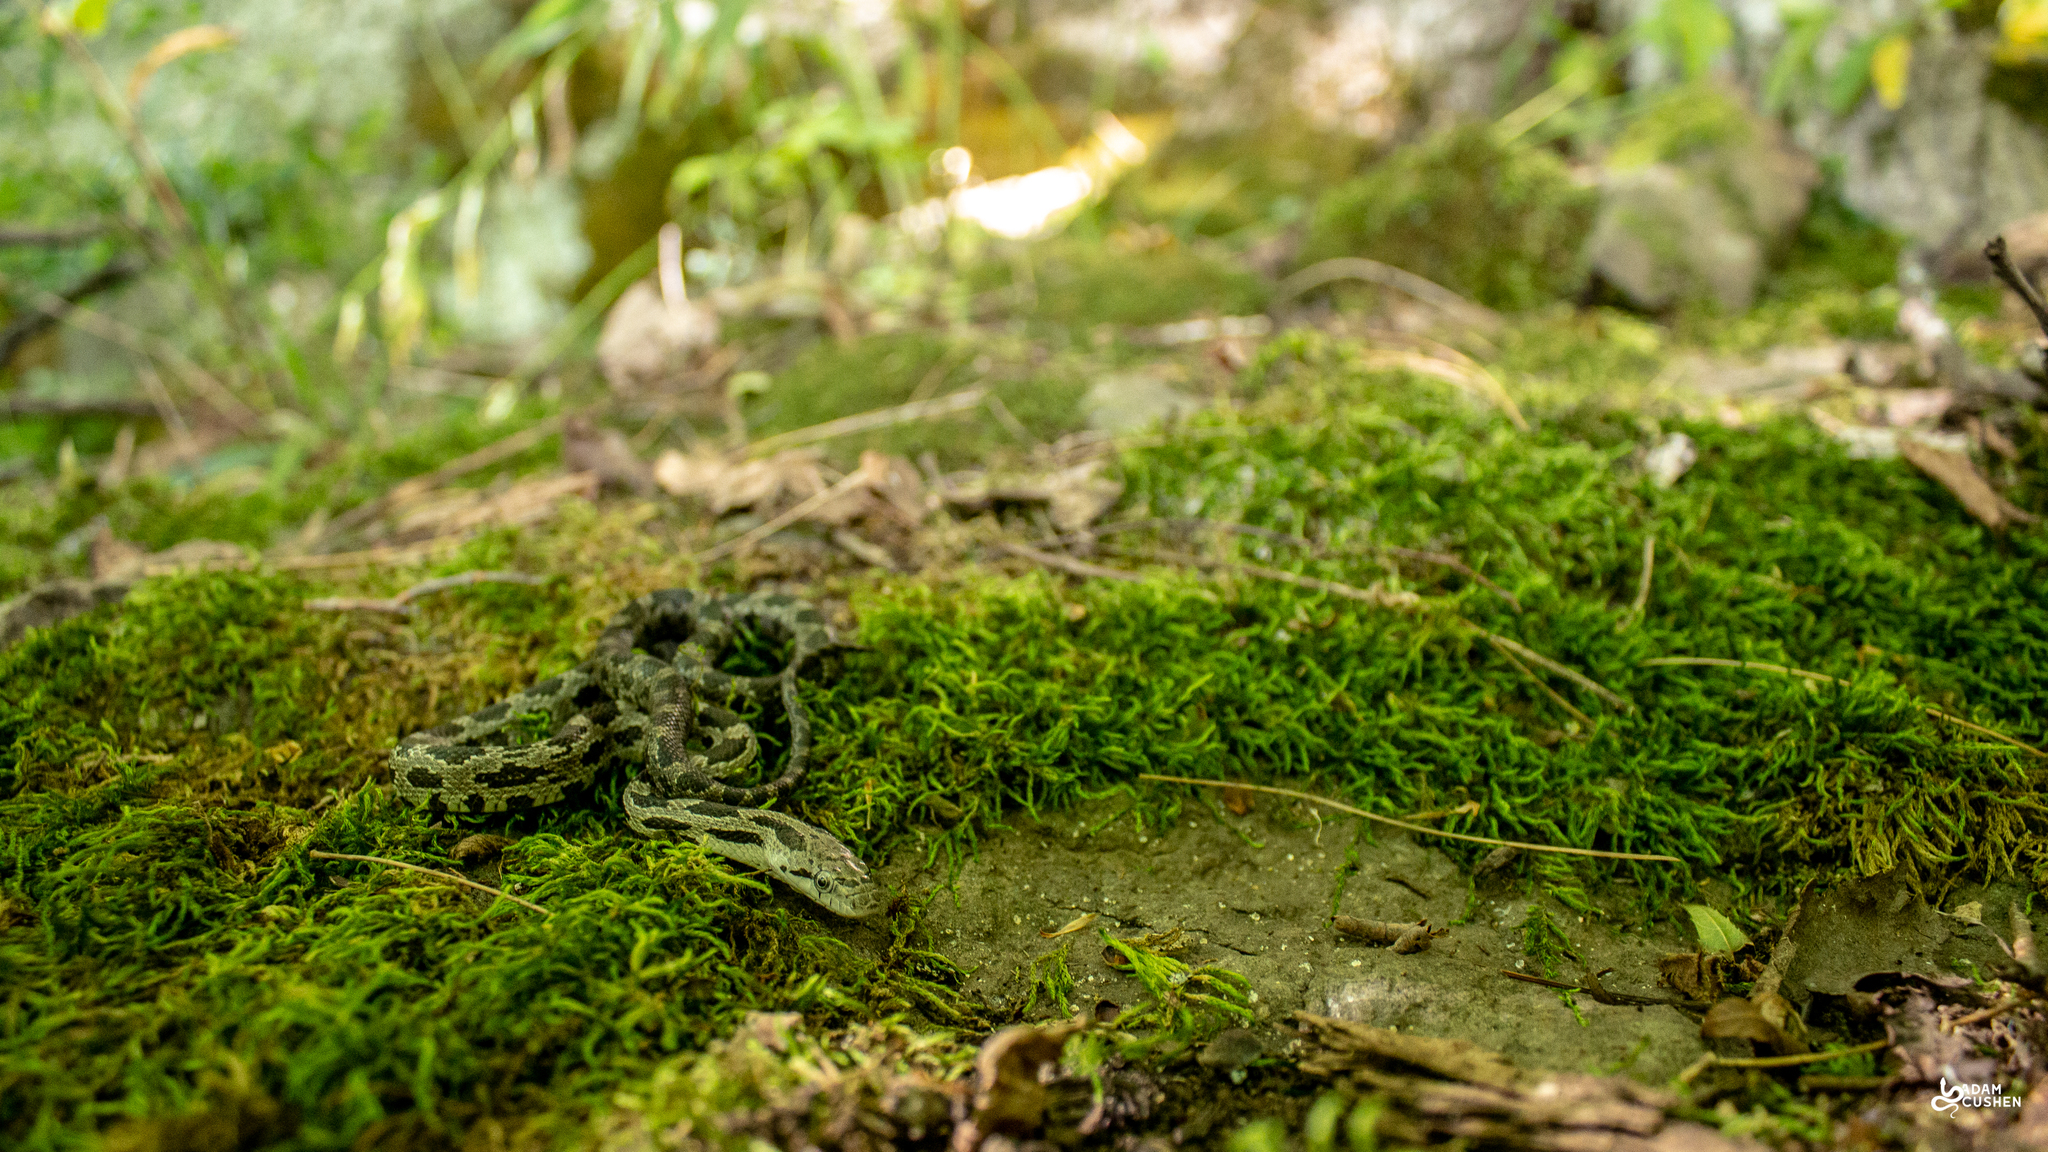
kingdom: Animalia
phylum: Chordata
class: Squamata
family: Colubridae
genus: Pantherophis
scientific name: Pantherophis spiloides
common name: Gray rat snake
